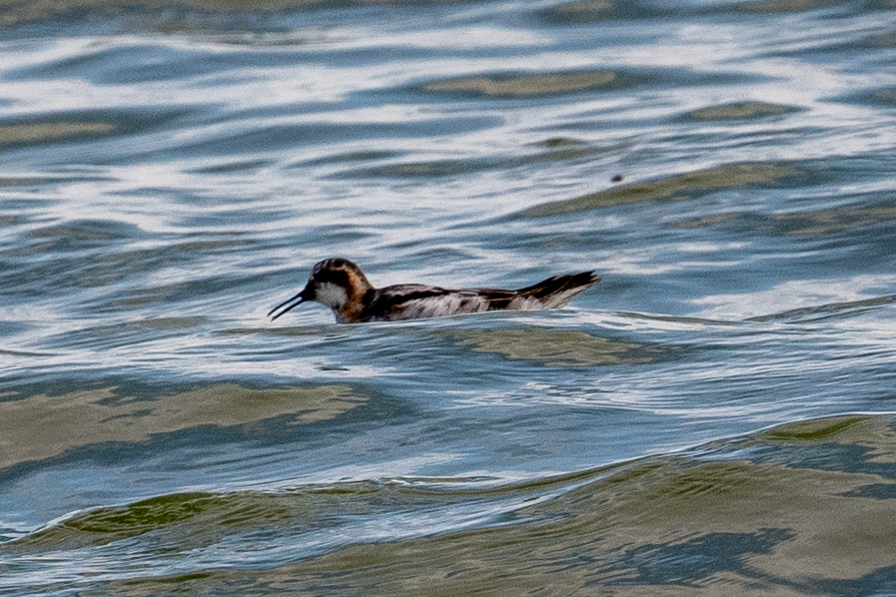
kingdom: Animalia
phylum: Chordata
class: Aves
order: Charadriiformes
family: Scolopacidae
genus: Phalaropus
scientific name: Phalaropus lobatus
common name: Red-necked phalarope
